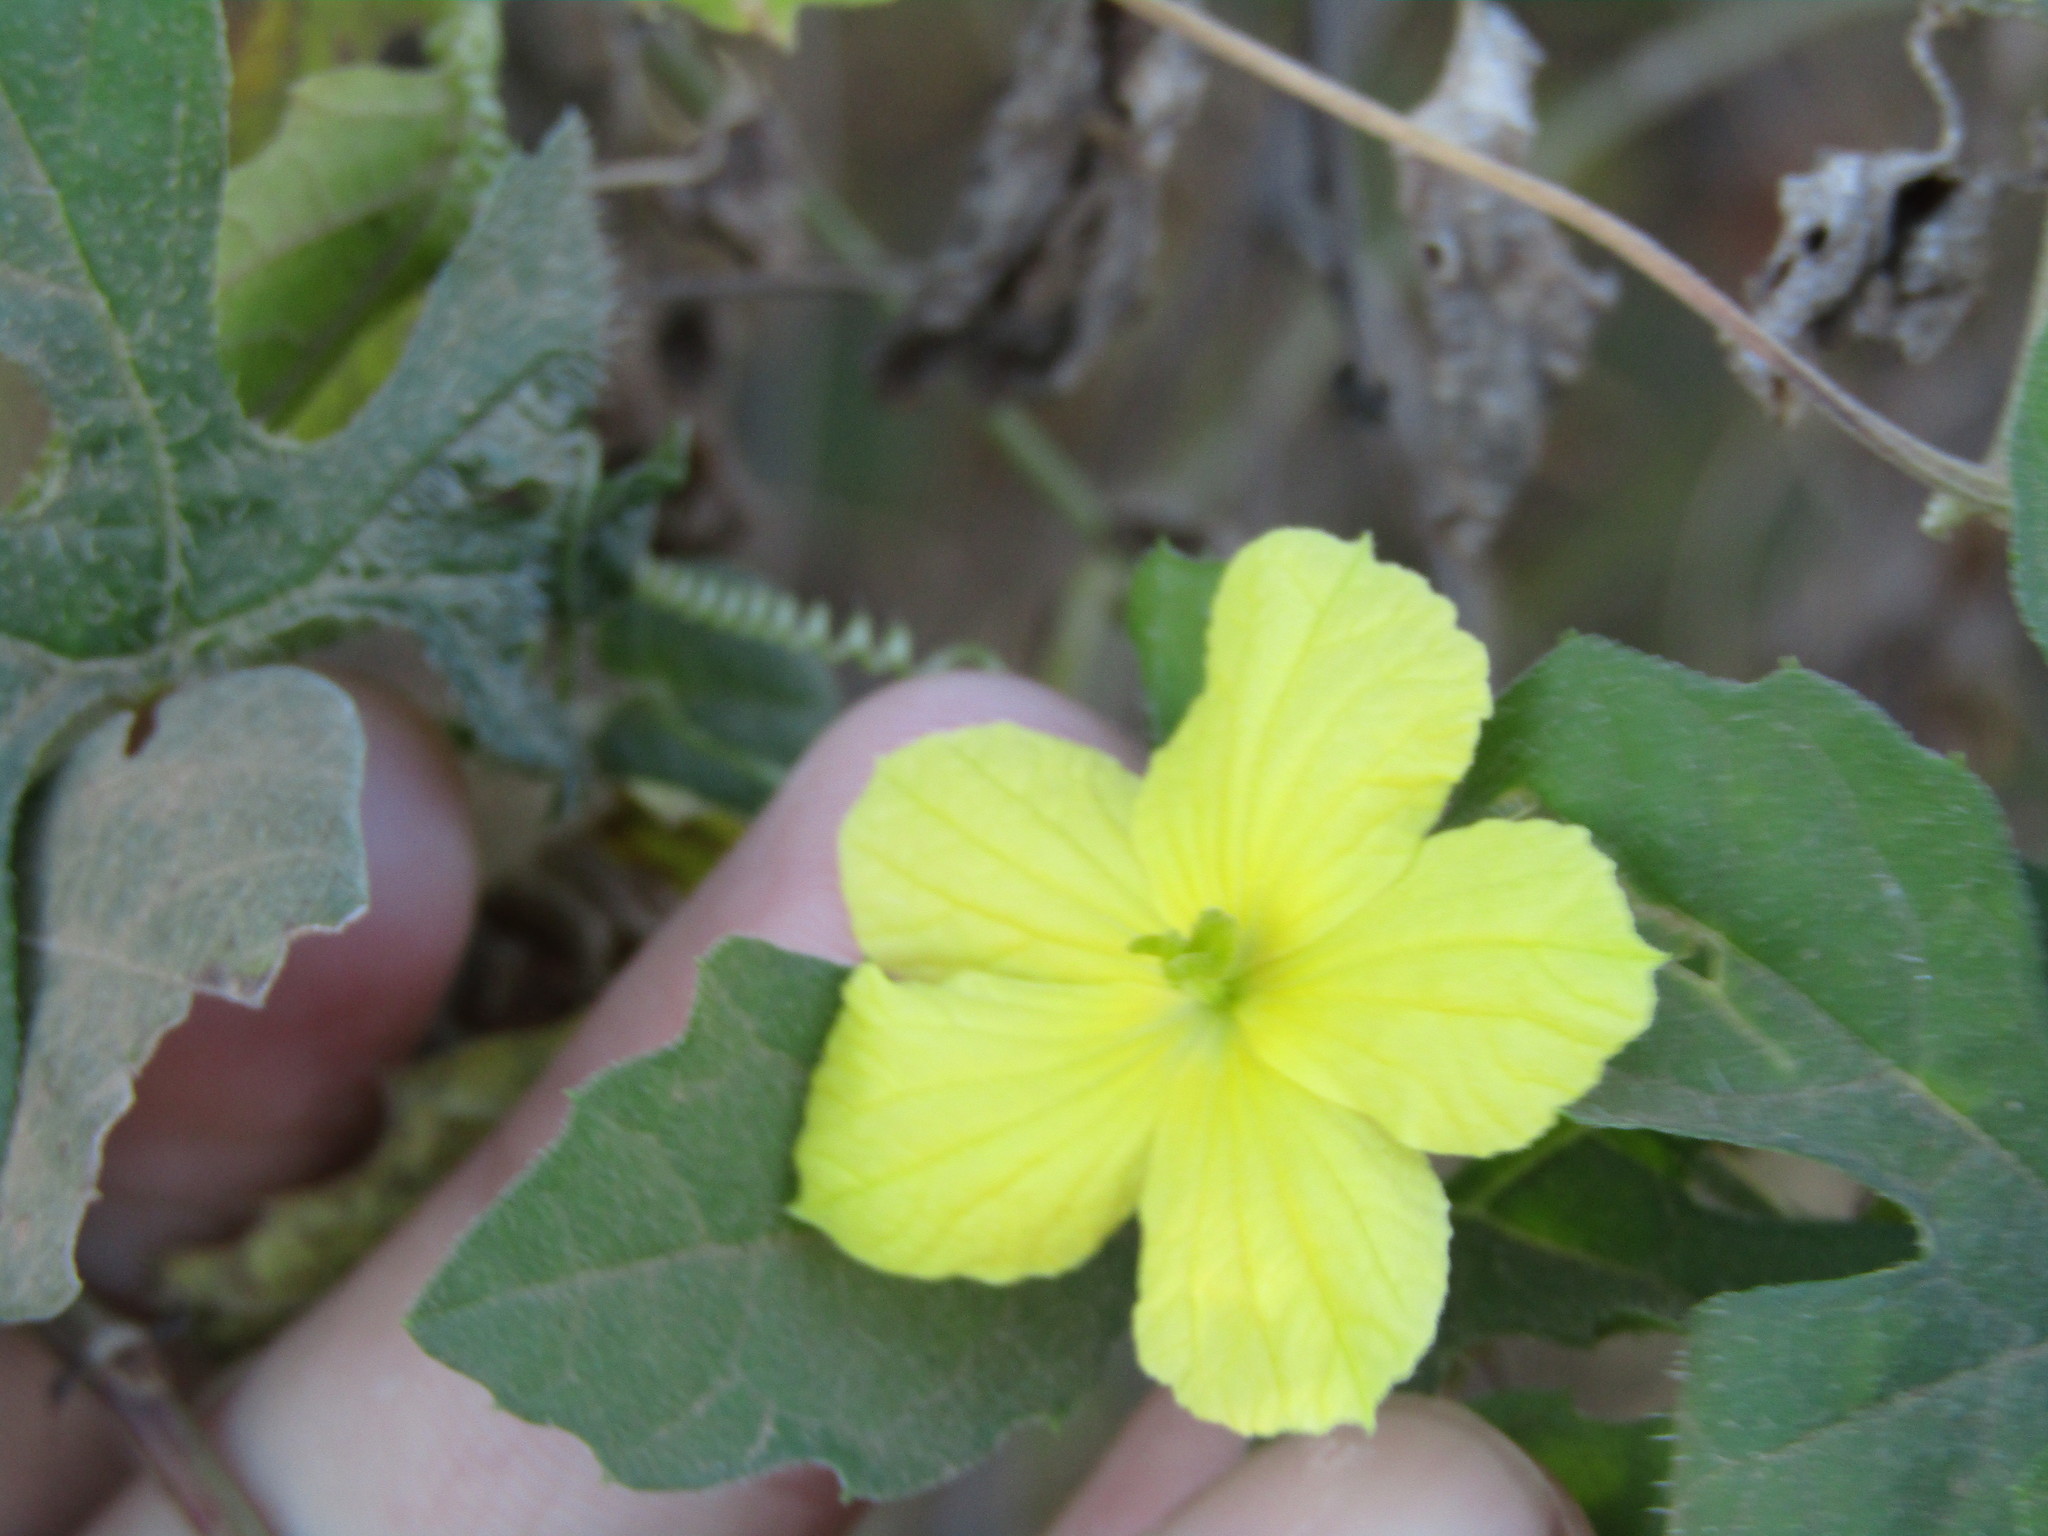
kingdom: Plantae
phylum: Tracheophyta
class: Magnoliopsida
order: Cucurbitales
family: Cucurbitaceae
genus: Momordica
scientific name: Momordica charantia
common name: Balsampear
